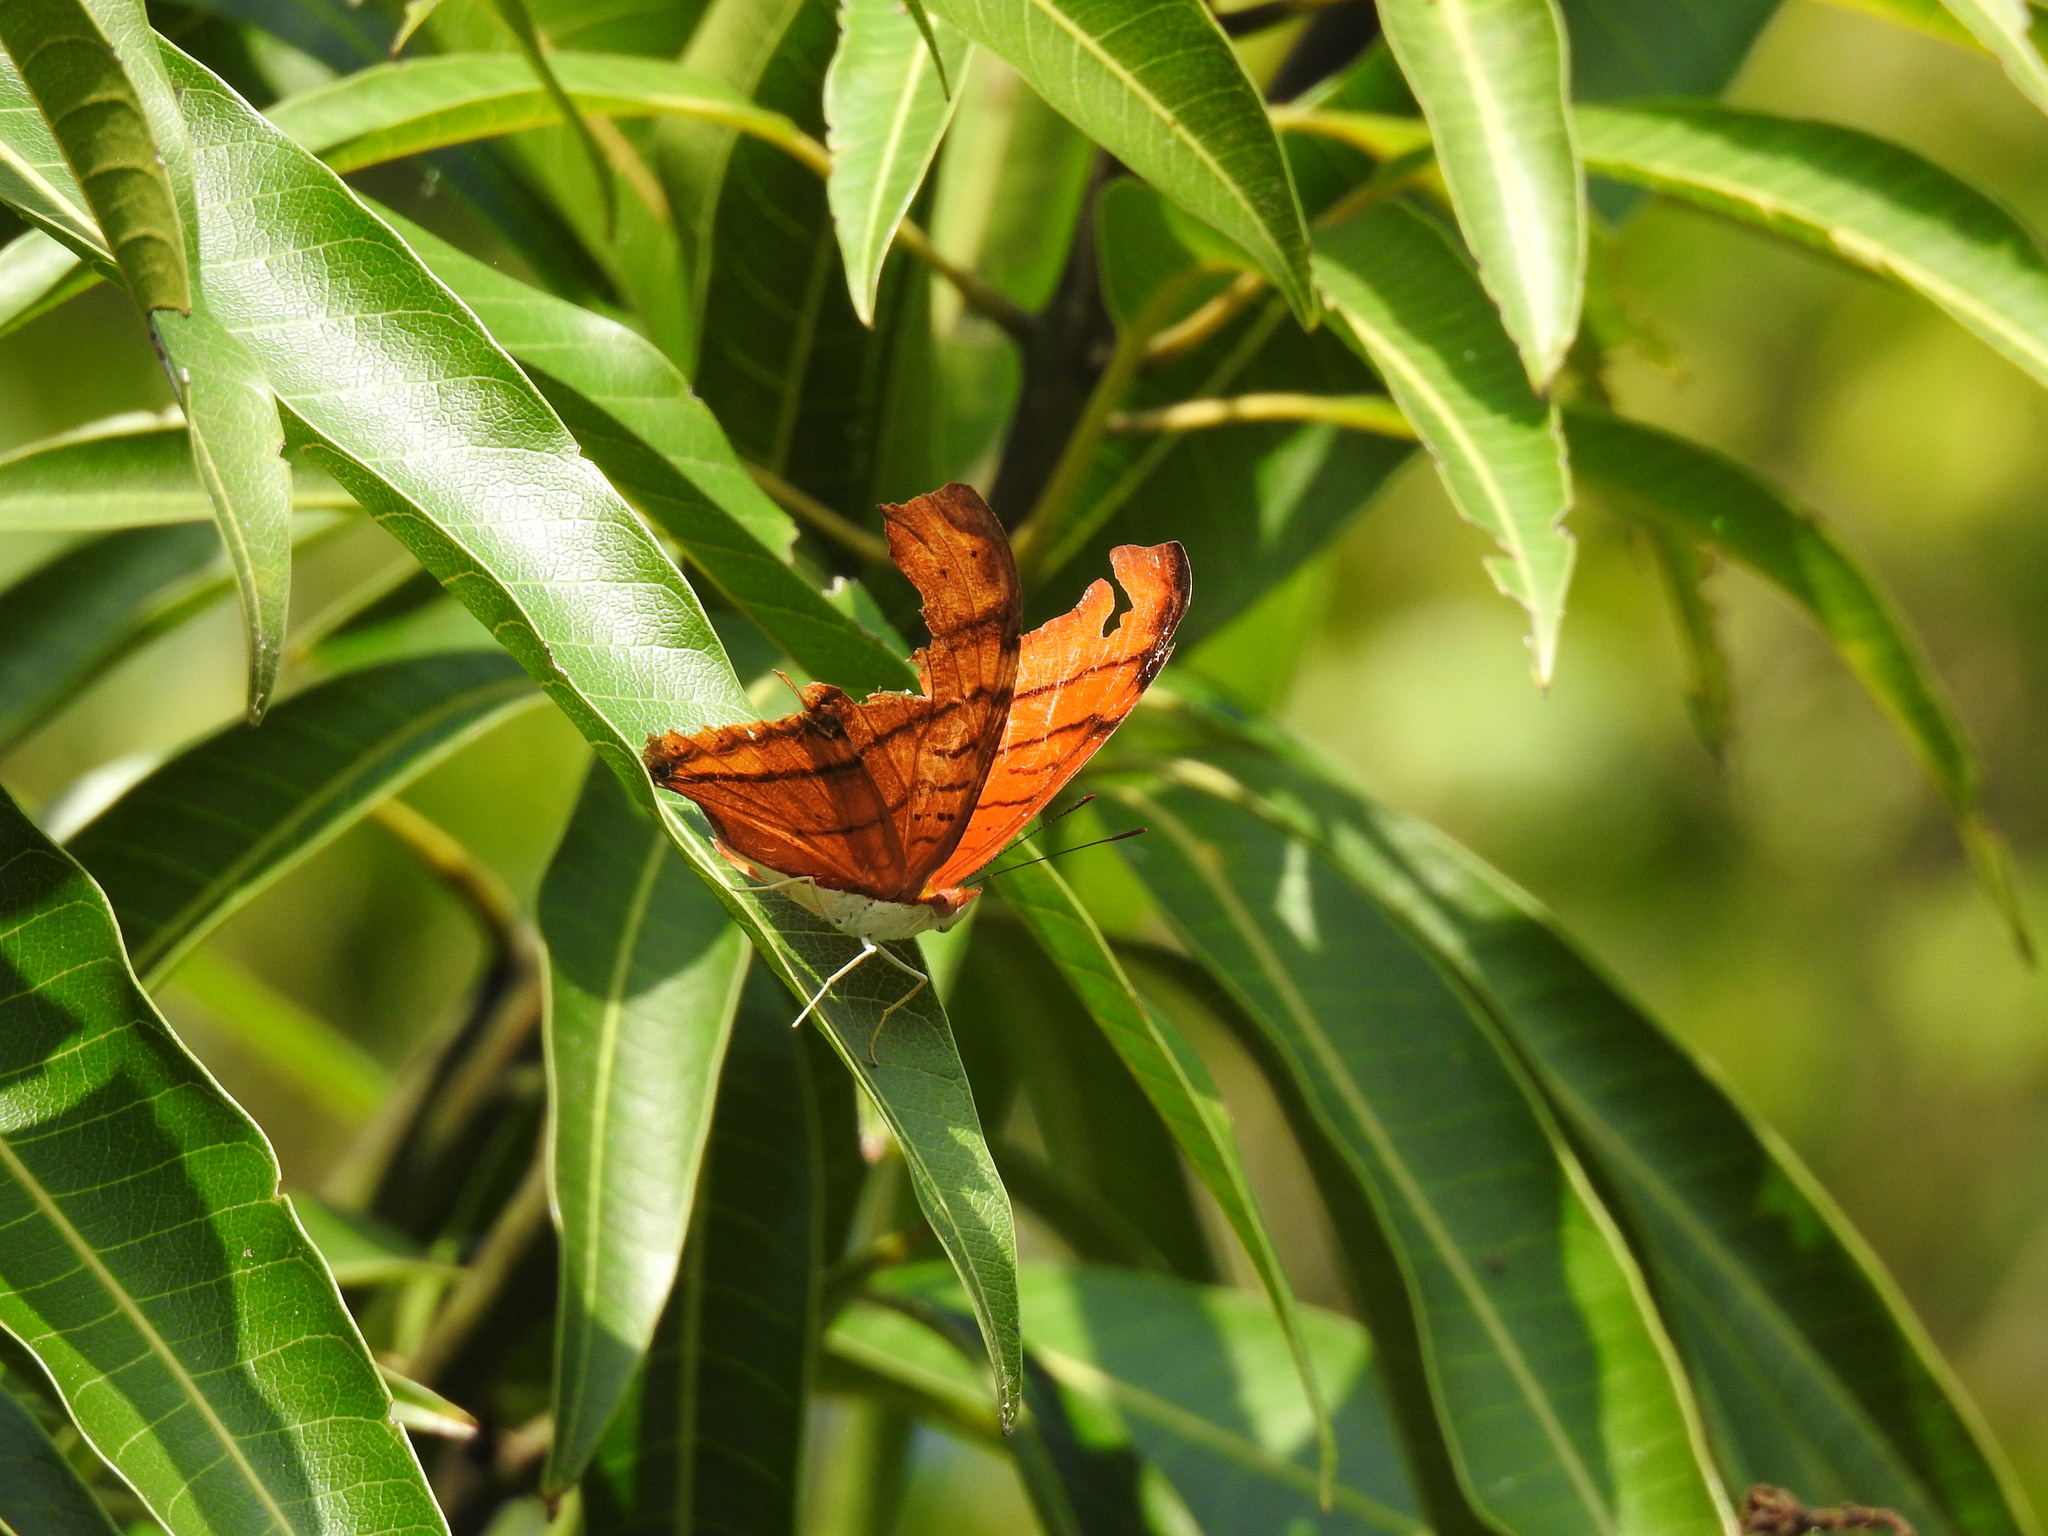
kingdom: Animalia
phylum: Arthropoda
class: Insecta
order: Lepidoptera
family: Nymphalidae
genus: Marpesia
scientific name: Marpesia petreus
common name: Red dagger wing
